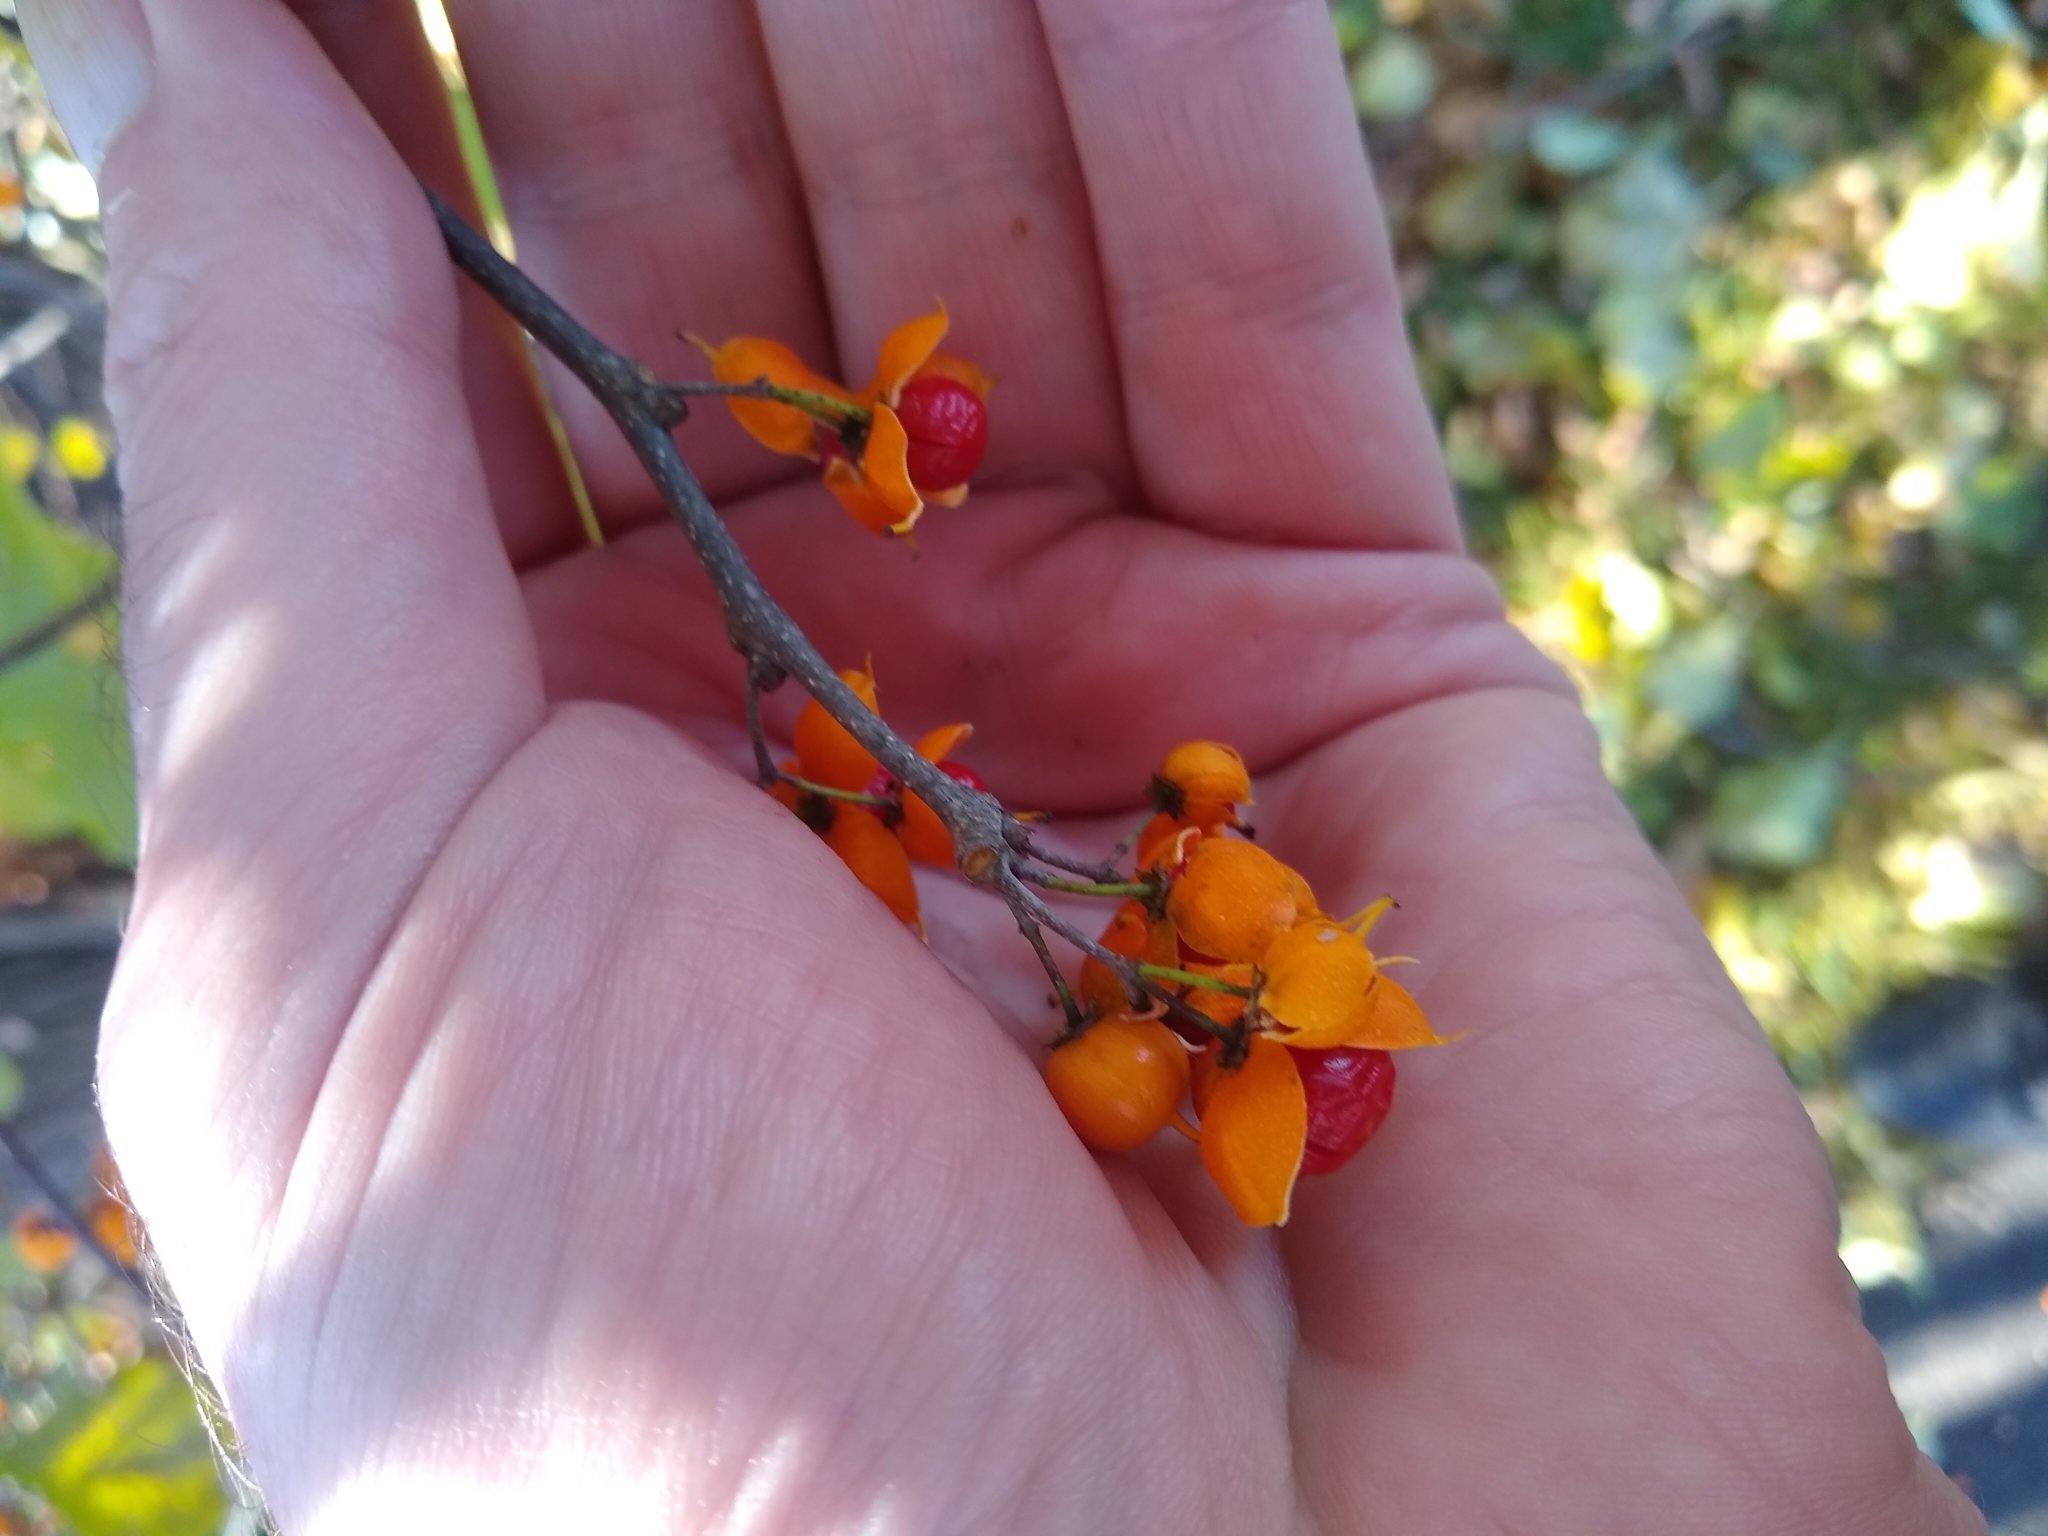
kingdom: Plantae
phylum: Tracheophyta
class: Magnoliopsida
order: Celastrales
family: Celastraceae
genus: Celastrus
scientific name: Celastrus orbiculatus
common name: Oriental bittersweet
